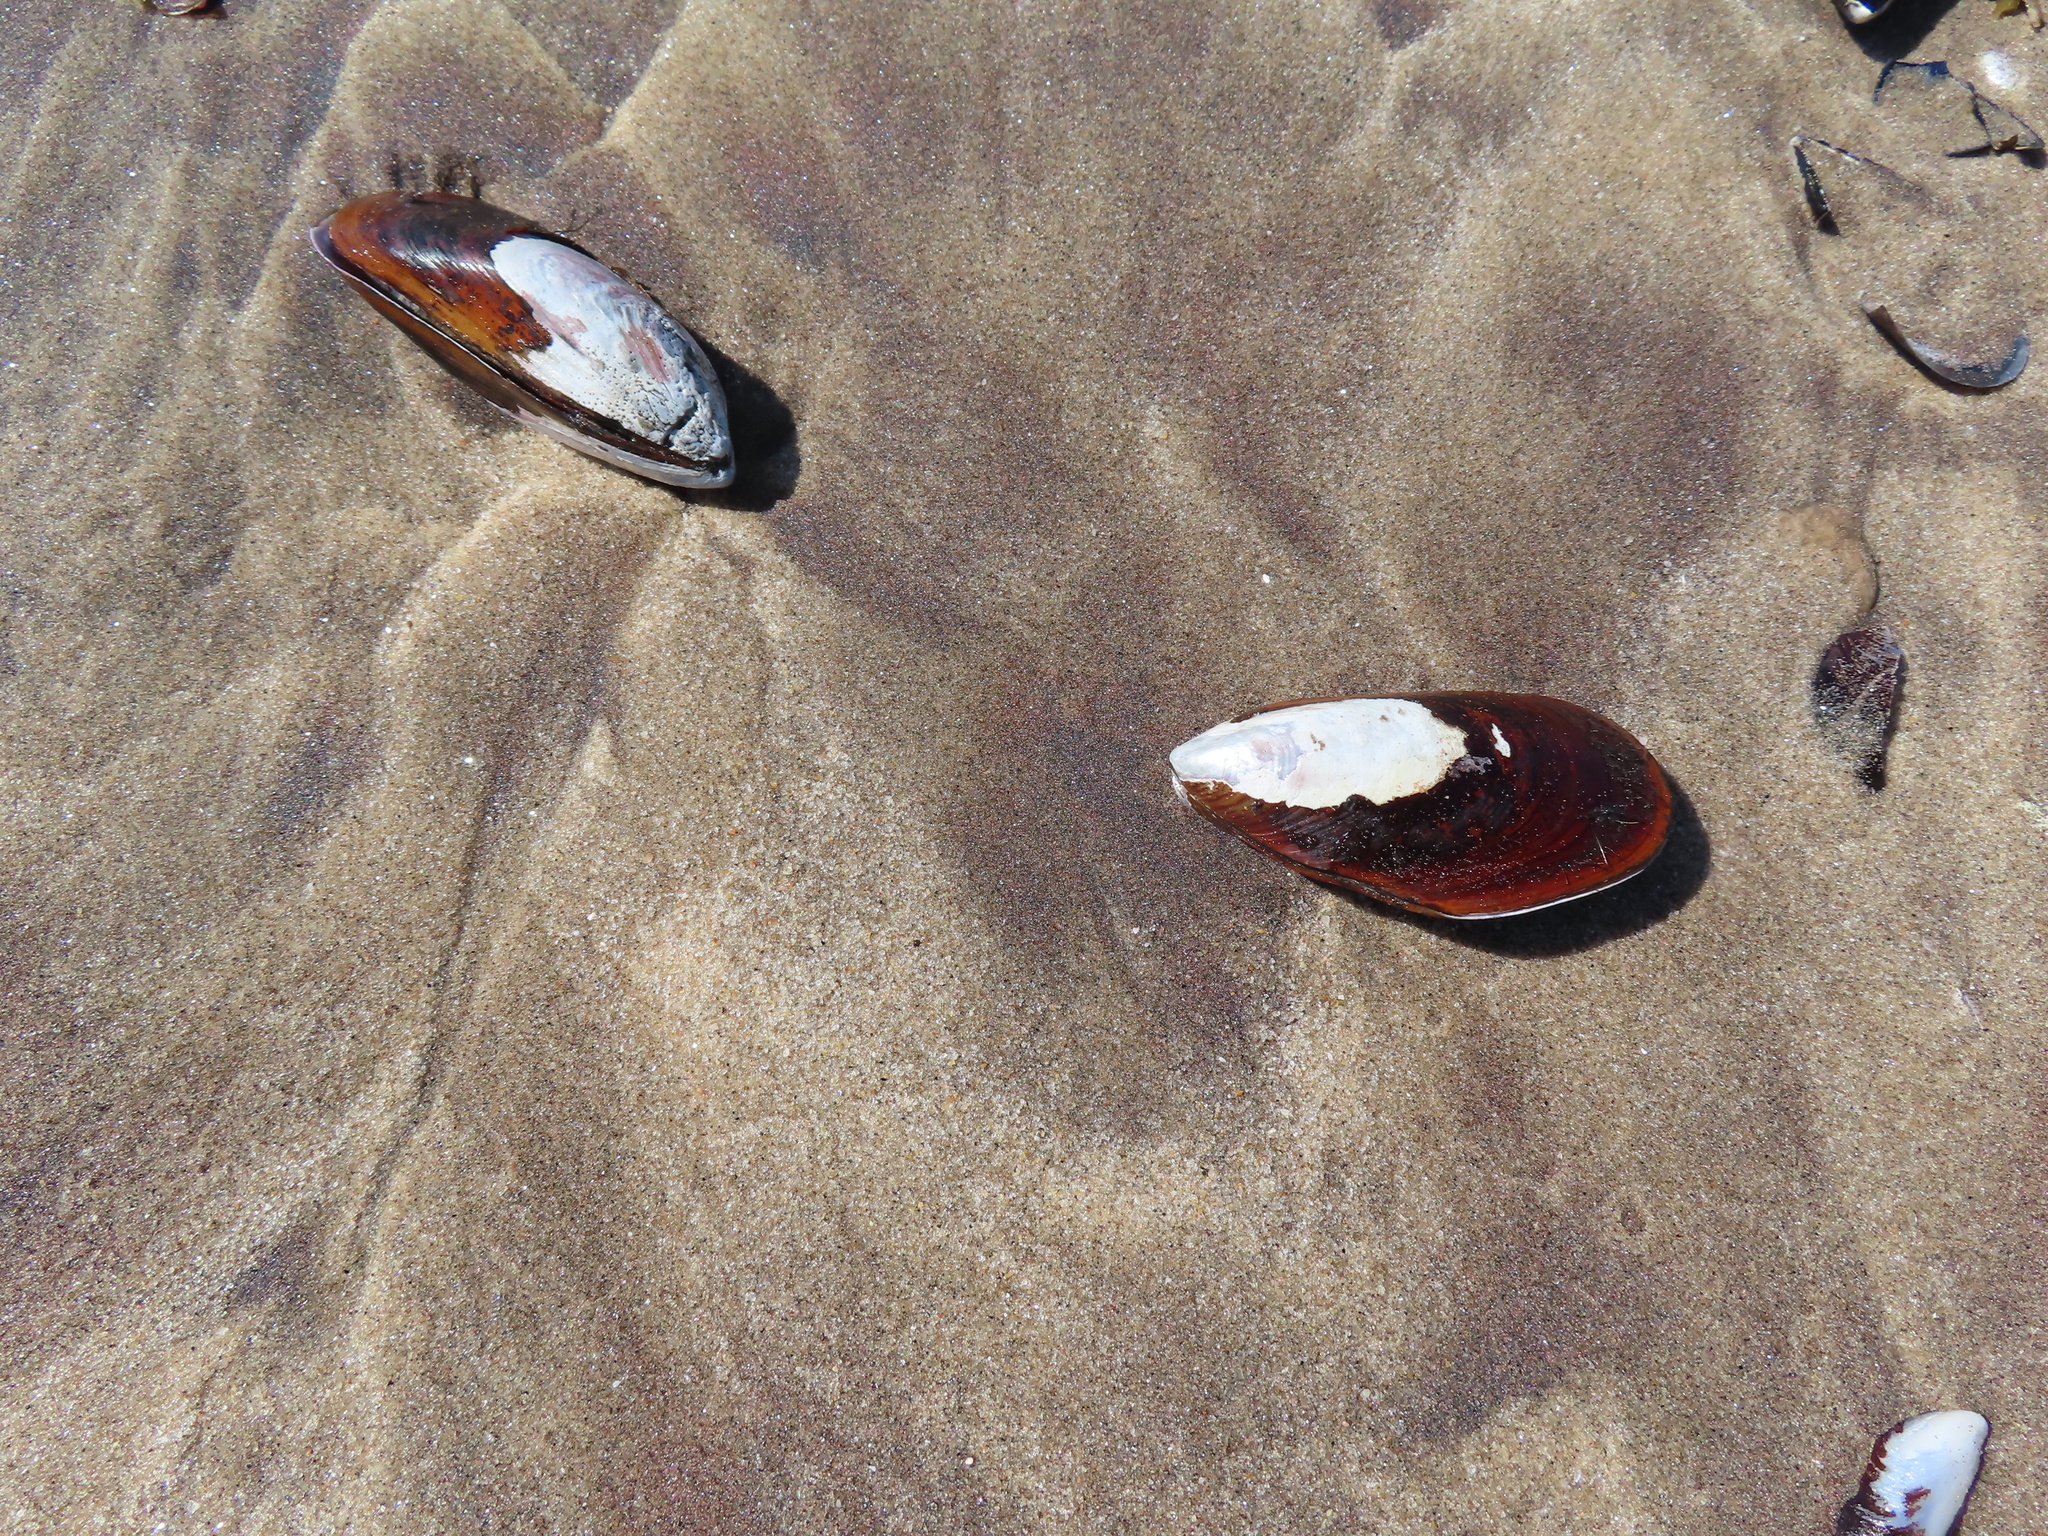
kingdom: Animalia
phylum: Mollusca
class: Bivalvia
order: Mytilida
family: Mytilidae
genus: Perna
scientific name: Perna perna
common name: Mexilhao mussel
